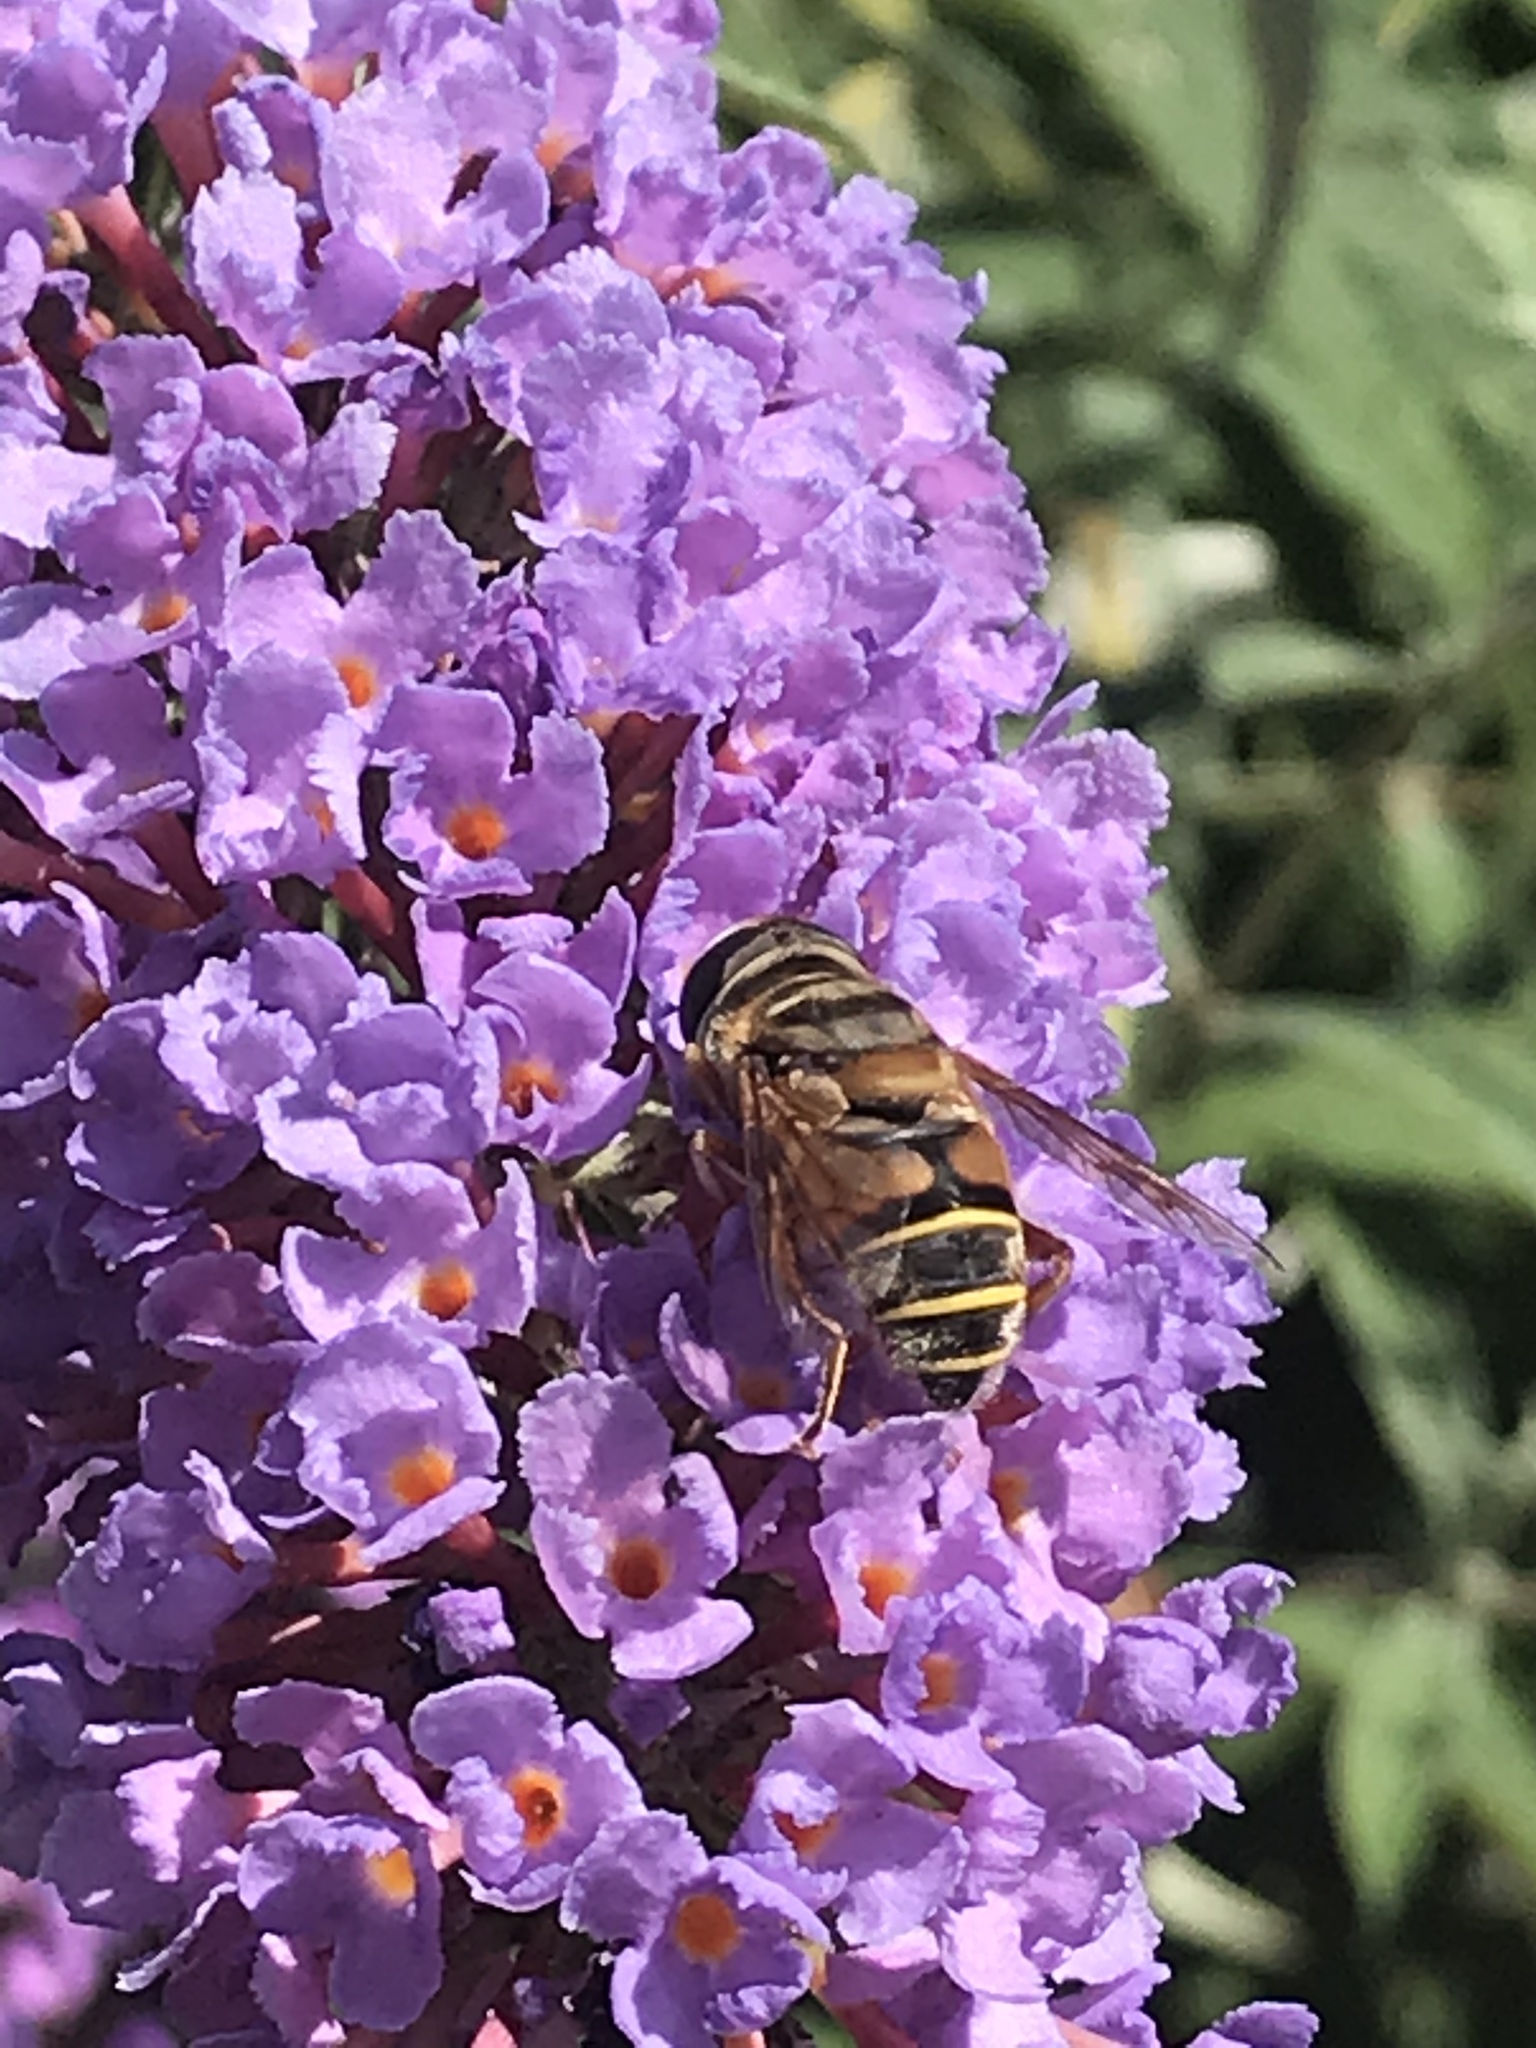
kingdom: Animalia
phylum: Arthropoda
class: Insecta
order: Diptera
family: Syrphidae
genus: Palpada
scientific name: Palpada vinetorum
